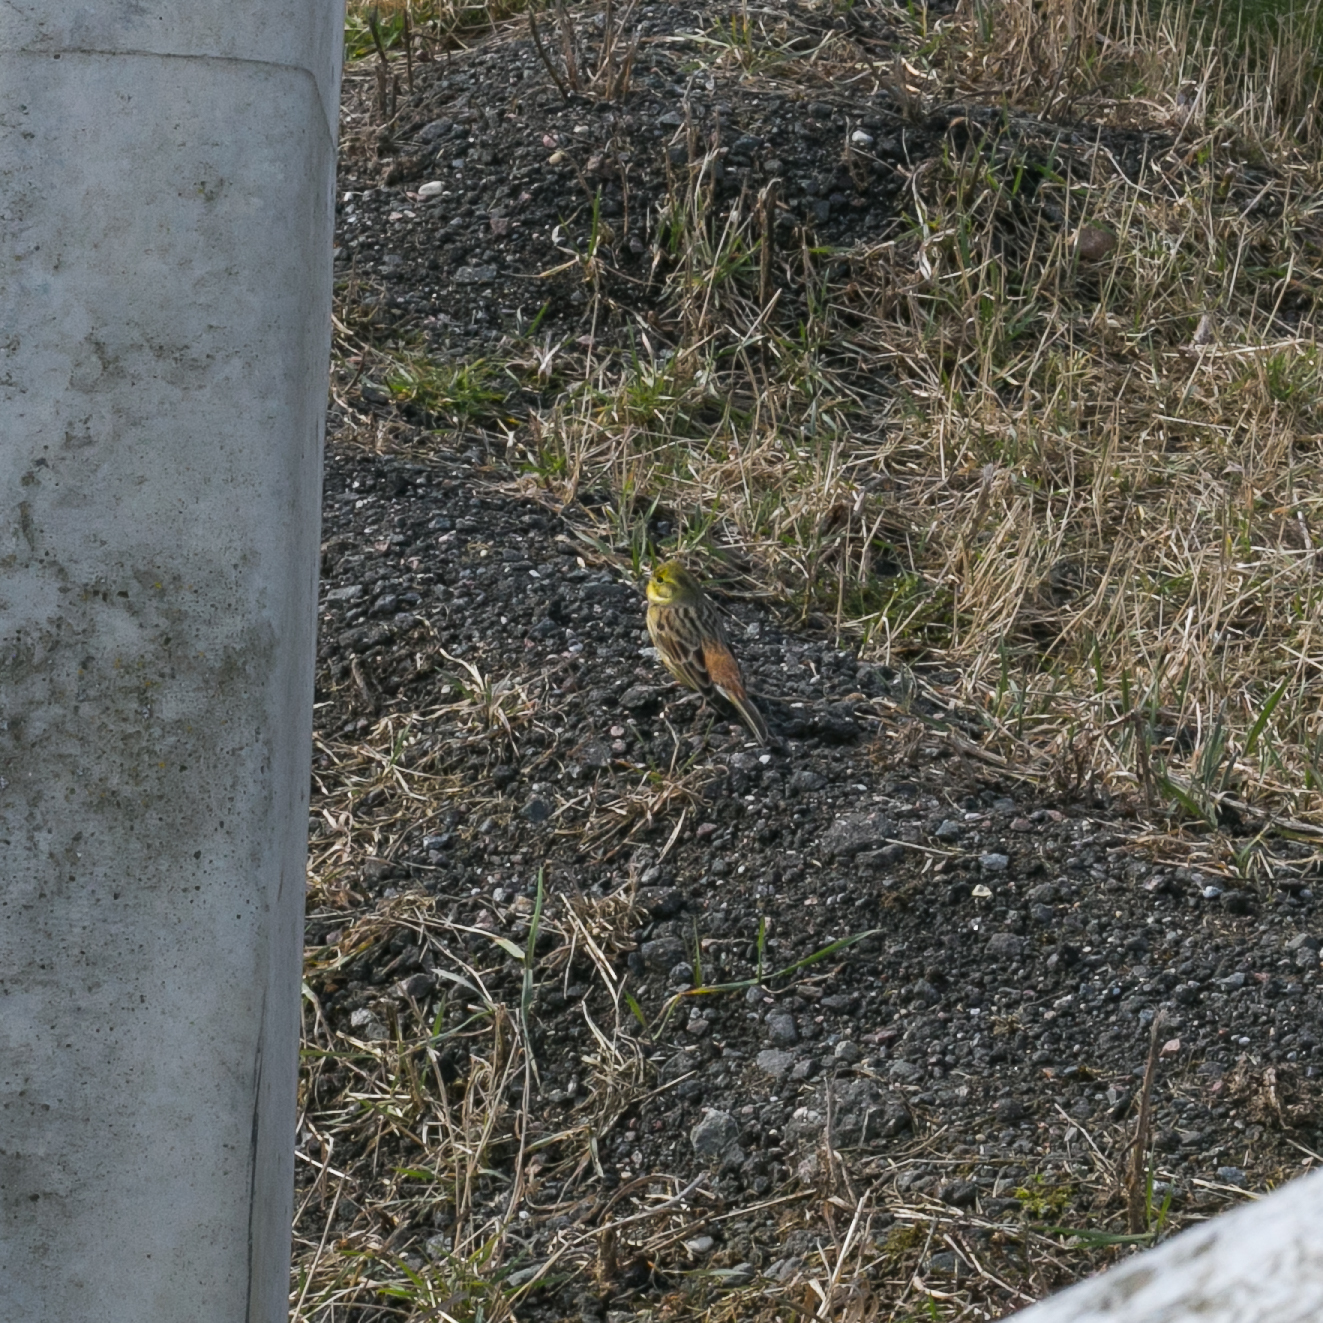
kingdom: Animalia
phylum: Chordata
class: Aves
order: Passeriformes
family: Emberizidae
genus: Emberiza
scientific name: Emberiza citrinella
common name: Yellowhammer
